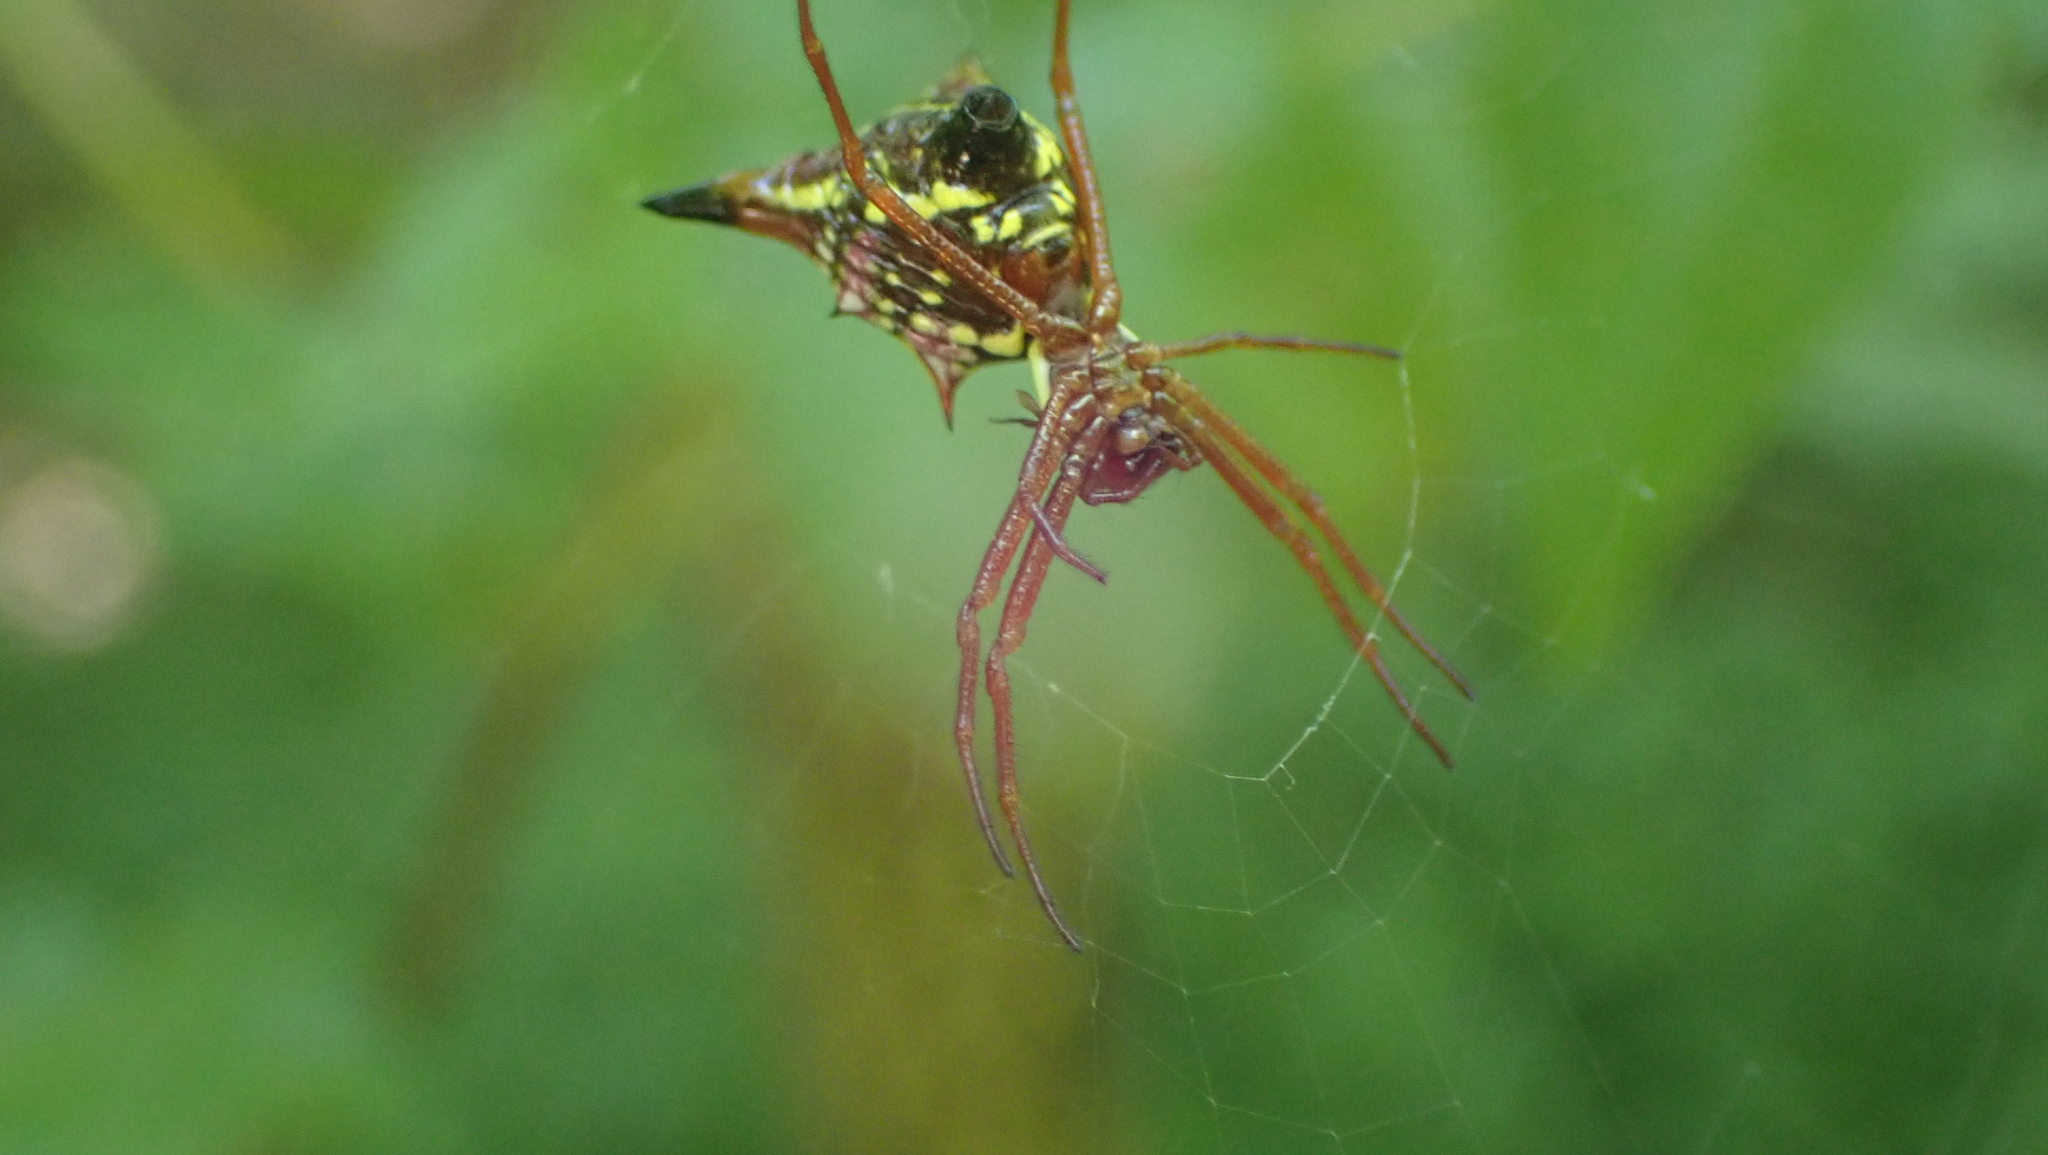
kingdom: Animalia
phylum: Arthropoda
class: Arachnida
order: Araneae
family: Araneidae
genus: Micrathena
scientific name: Micrathena sagittata
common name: Orb weavers
